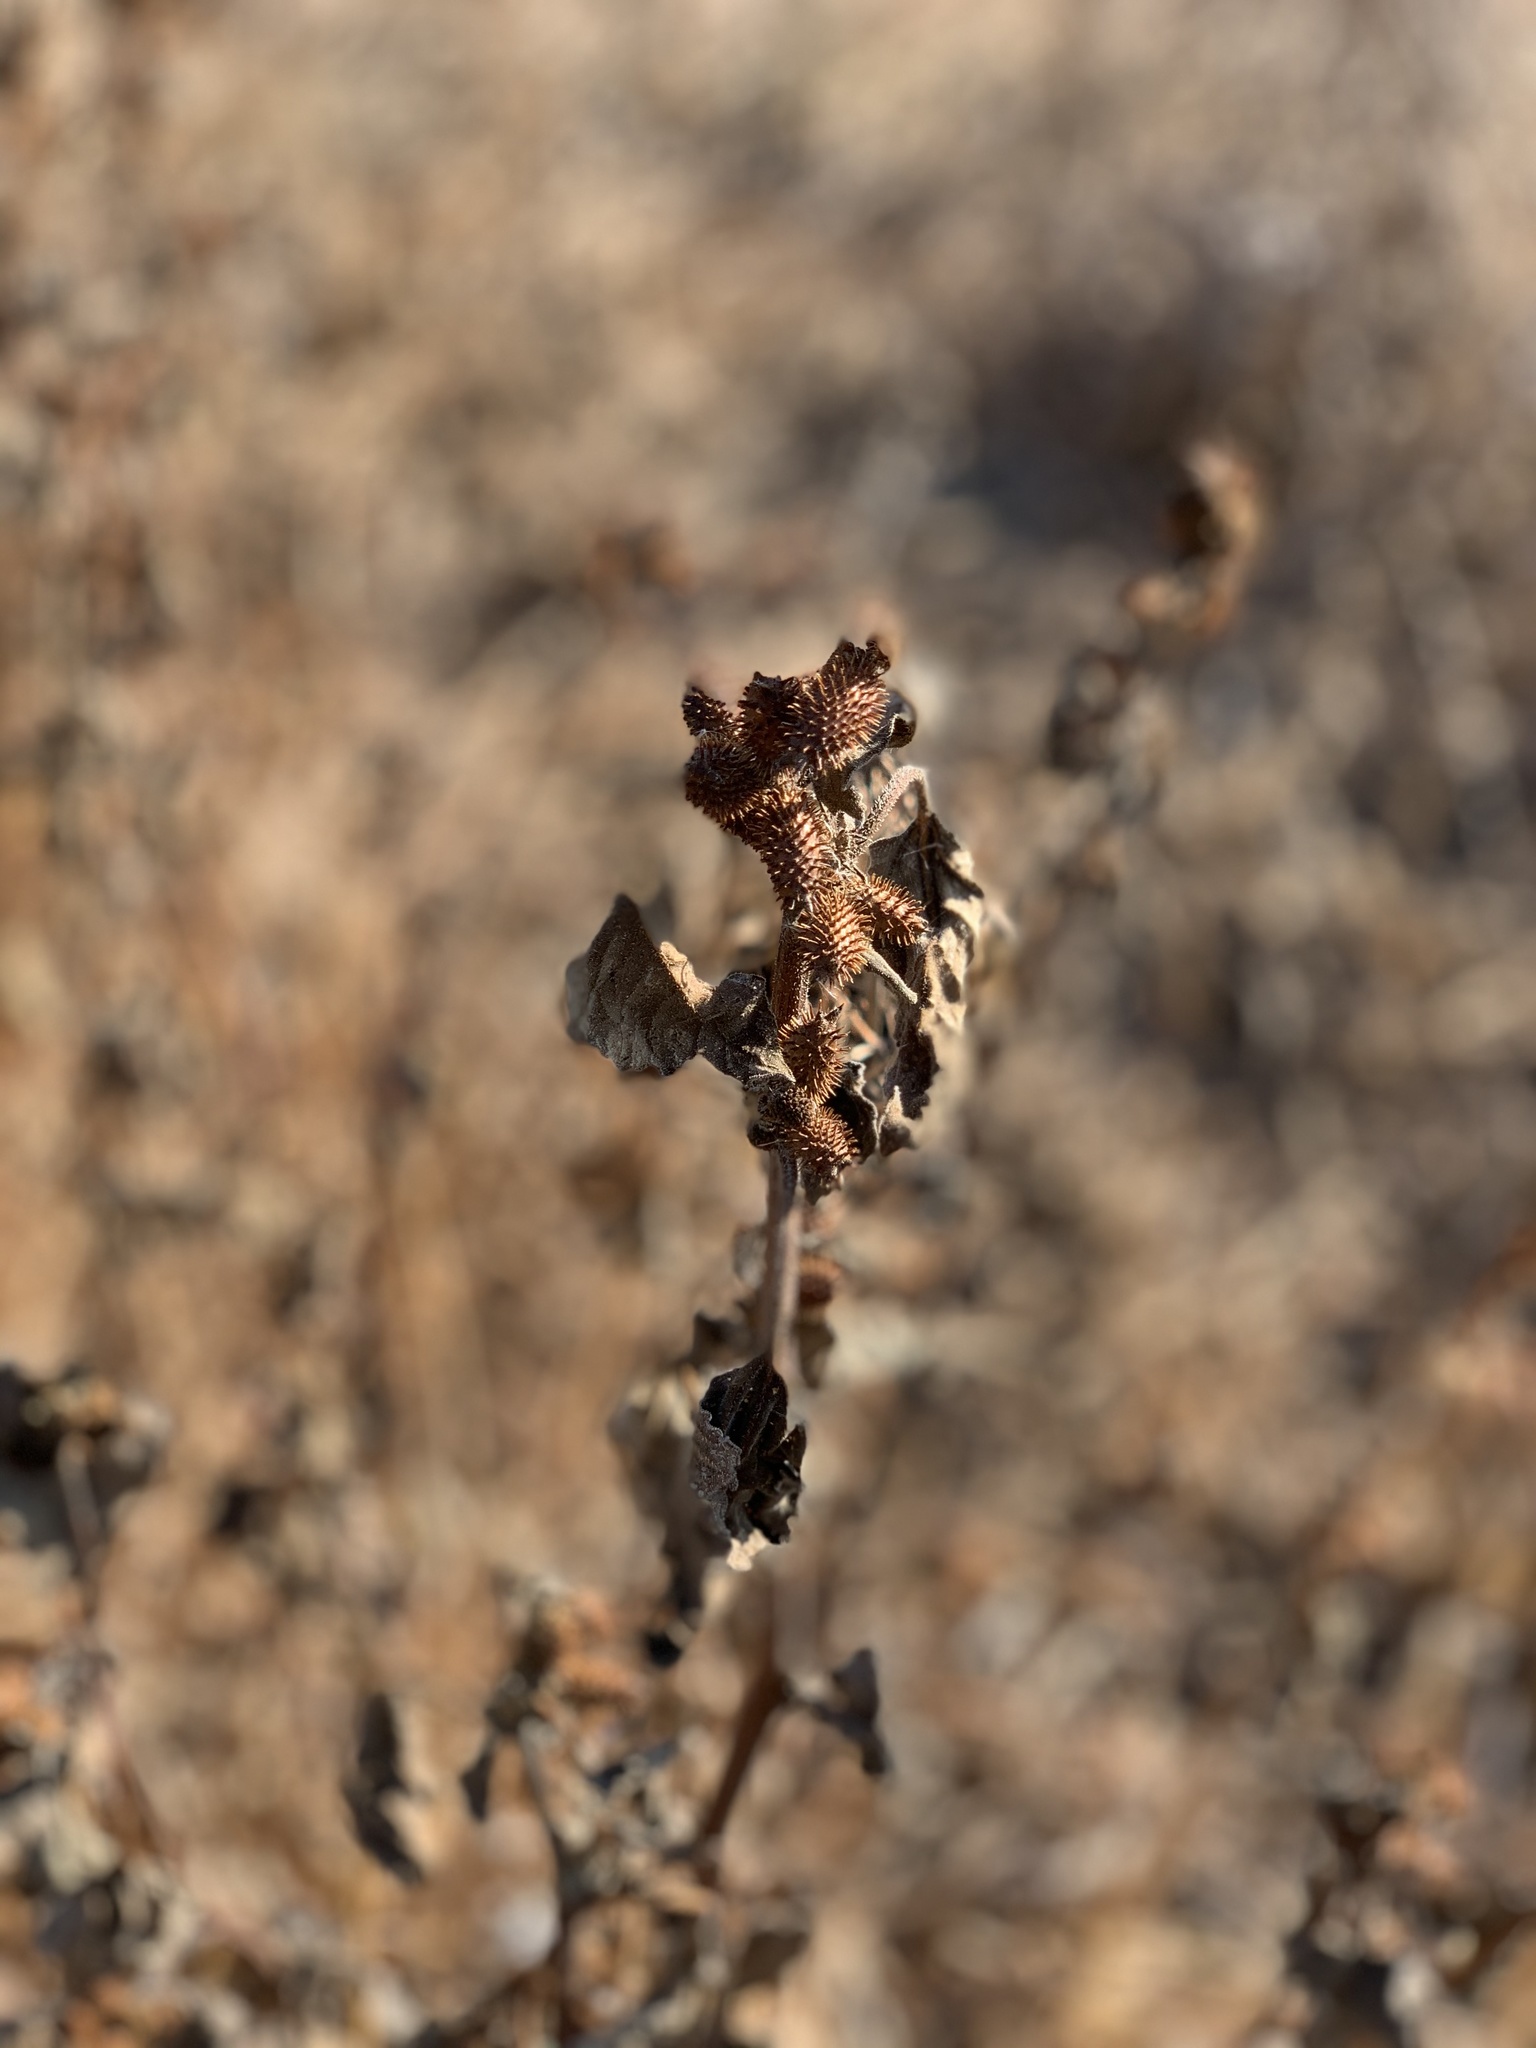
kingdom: Plantae
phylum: Tracheophyta
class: Magnoliopsida
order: Asterales
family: Asteraceae
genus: Xanthium
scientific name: Xanthium strumarium
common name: Rough cocklebur
